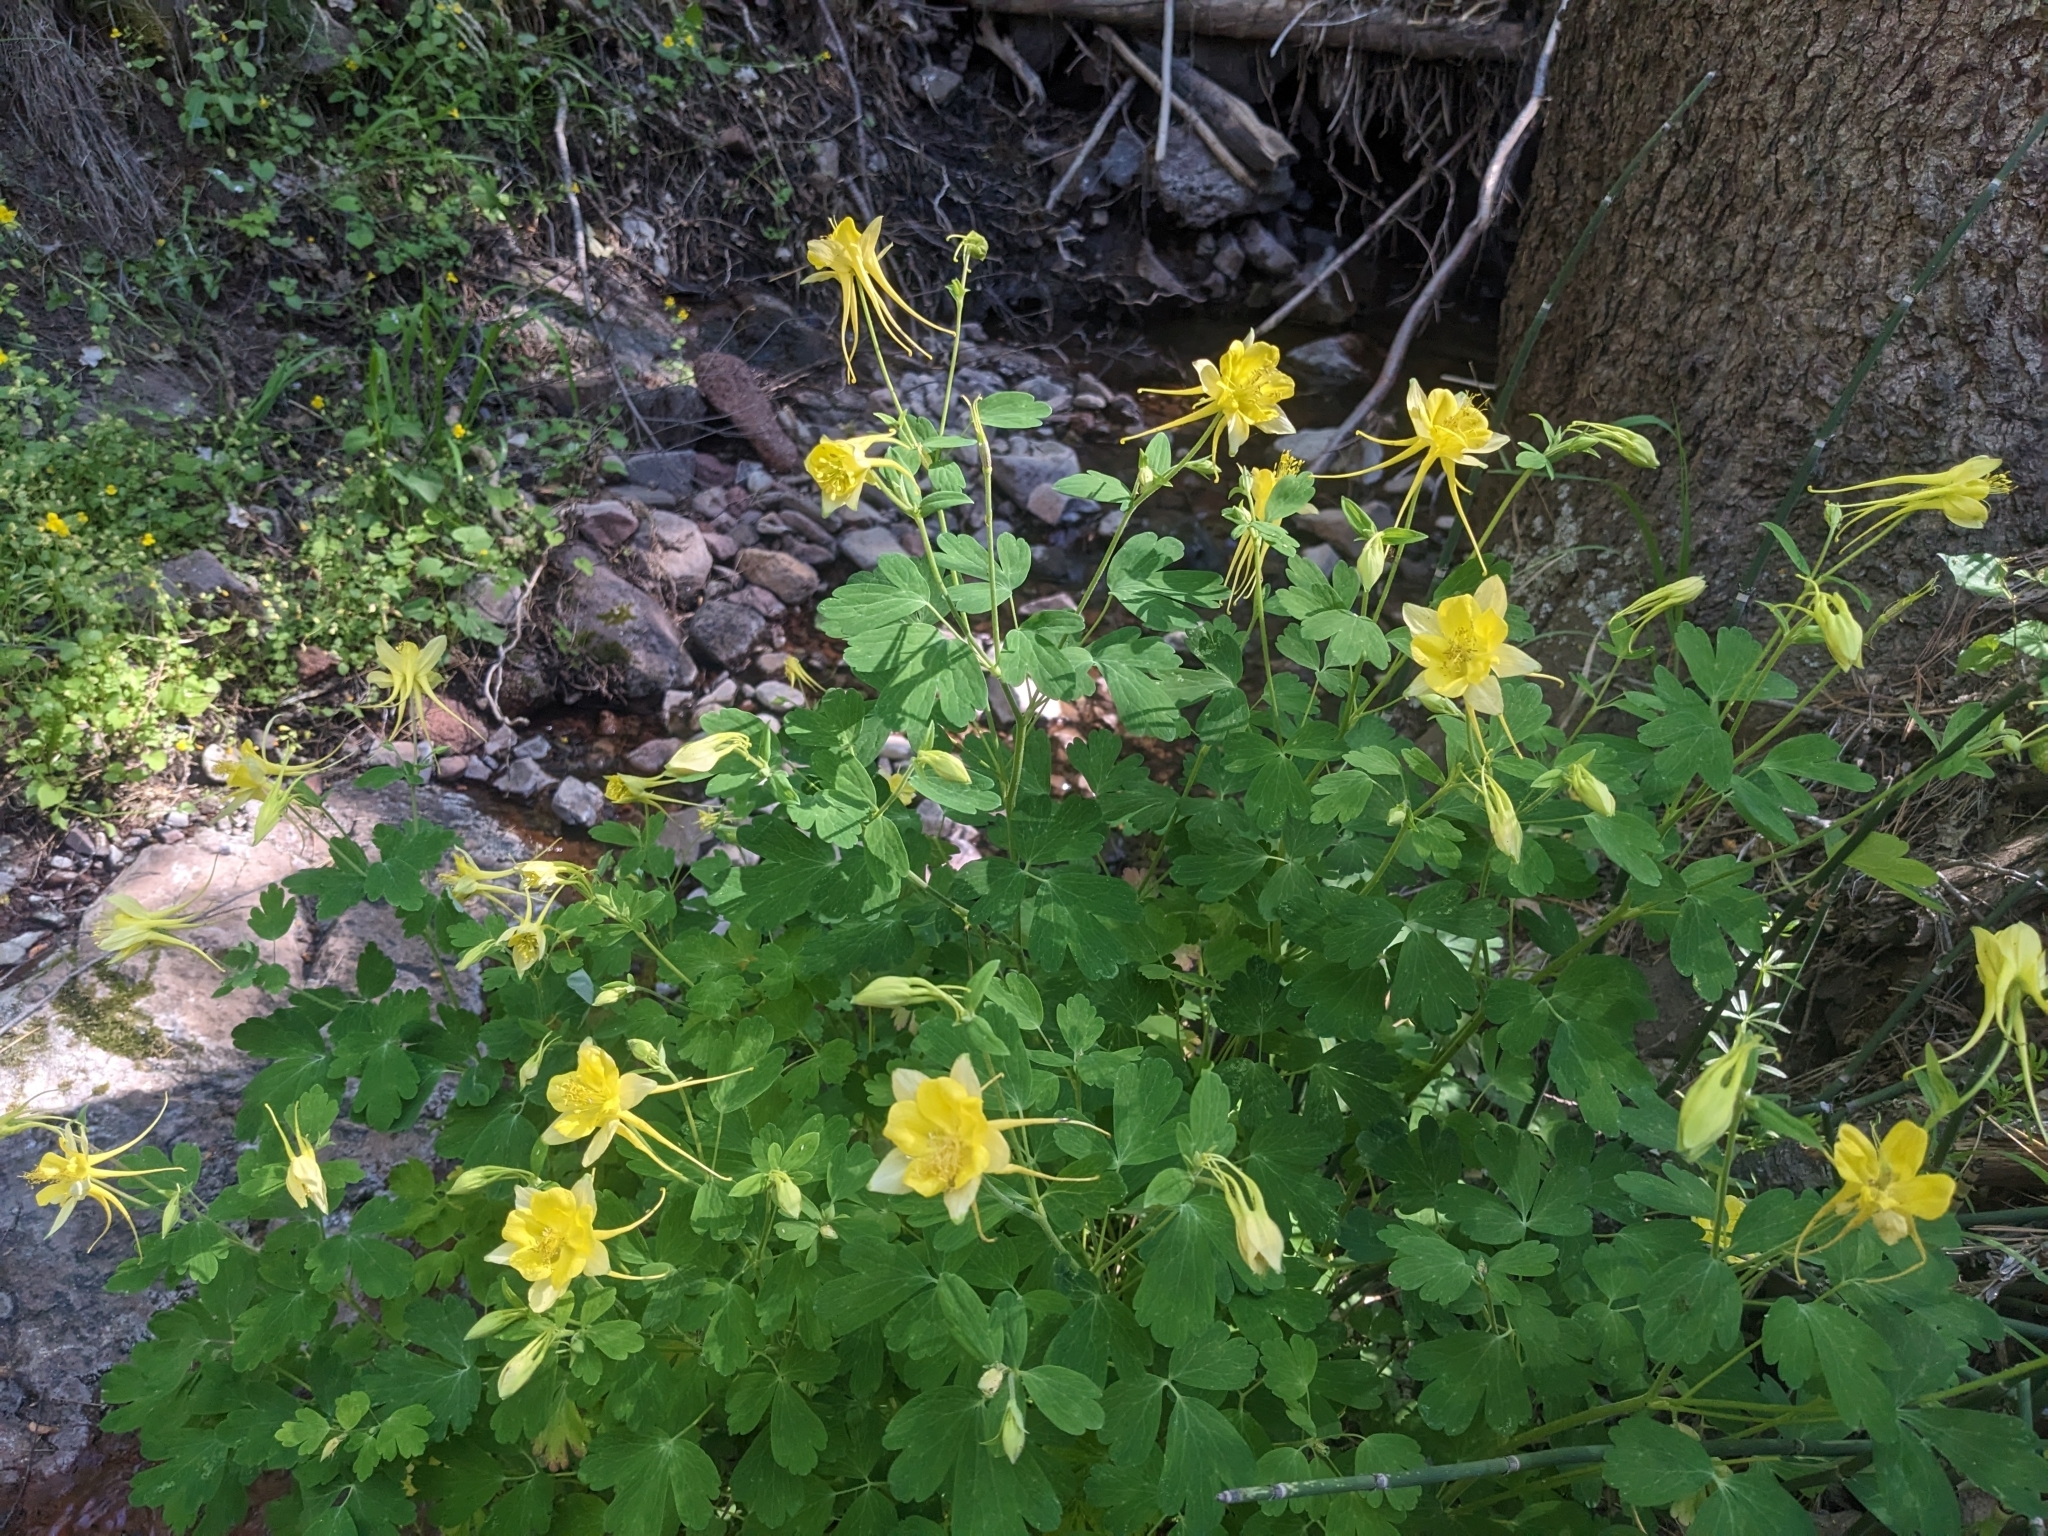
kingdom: Plantae
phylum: Tracheophyta
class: Magnoliopsida
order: Ranunculales
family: Ranunculaceae
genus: Aquilegia
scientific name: Aquilegia chrysantha
